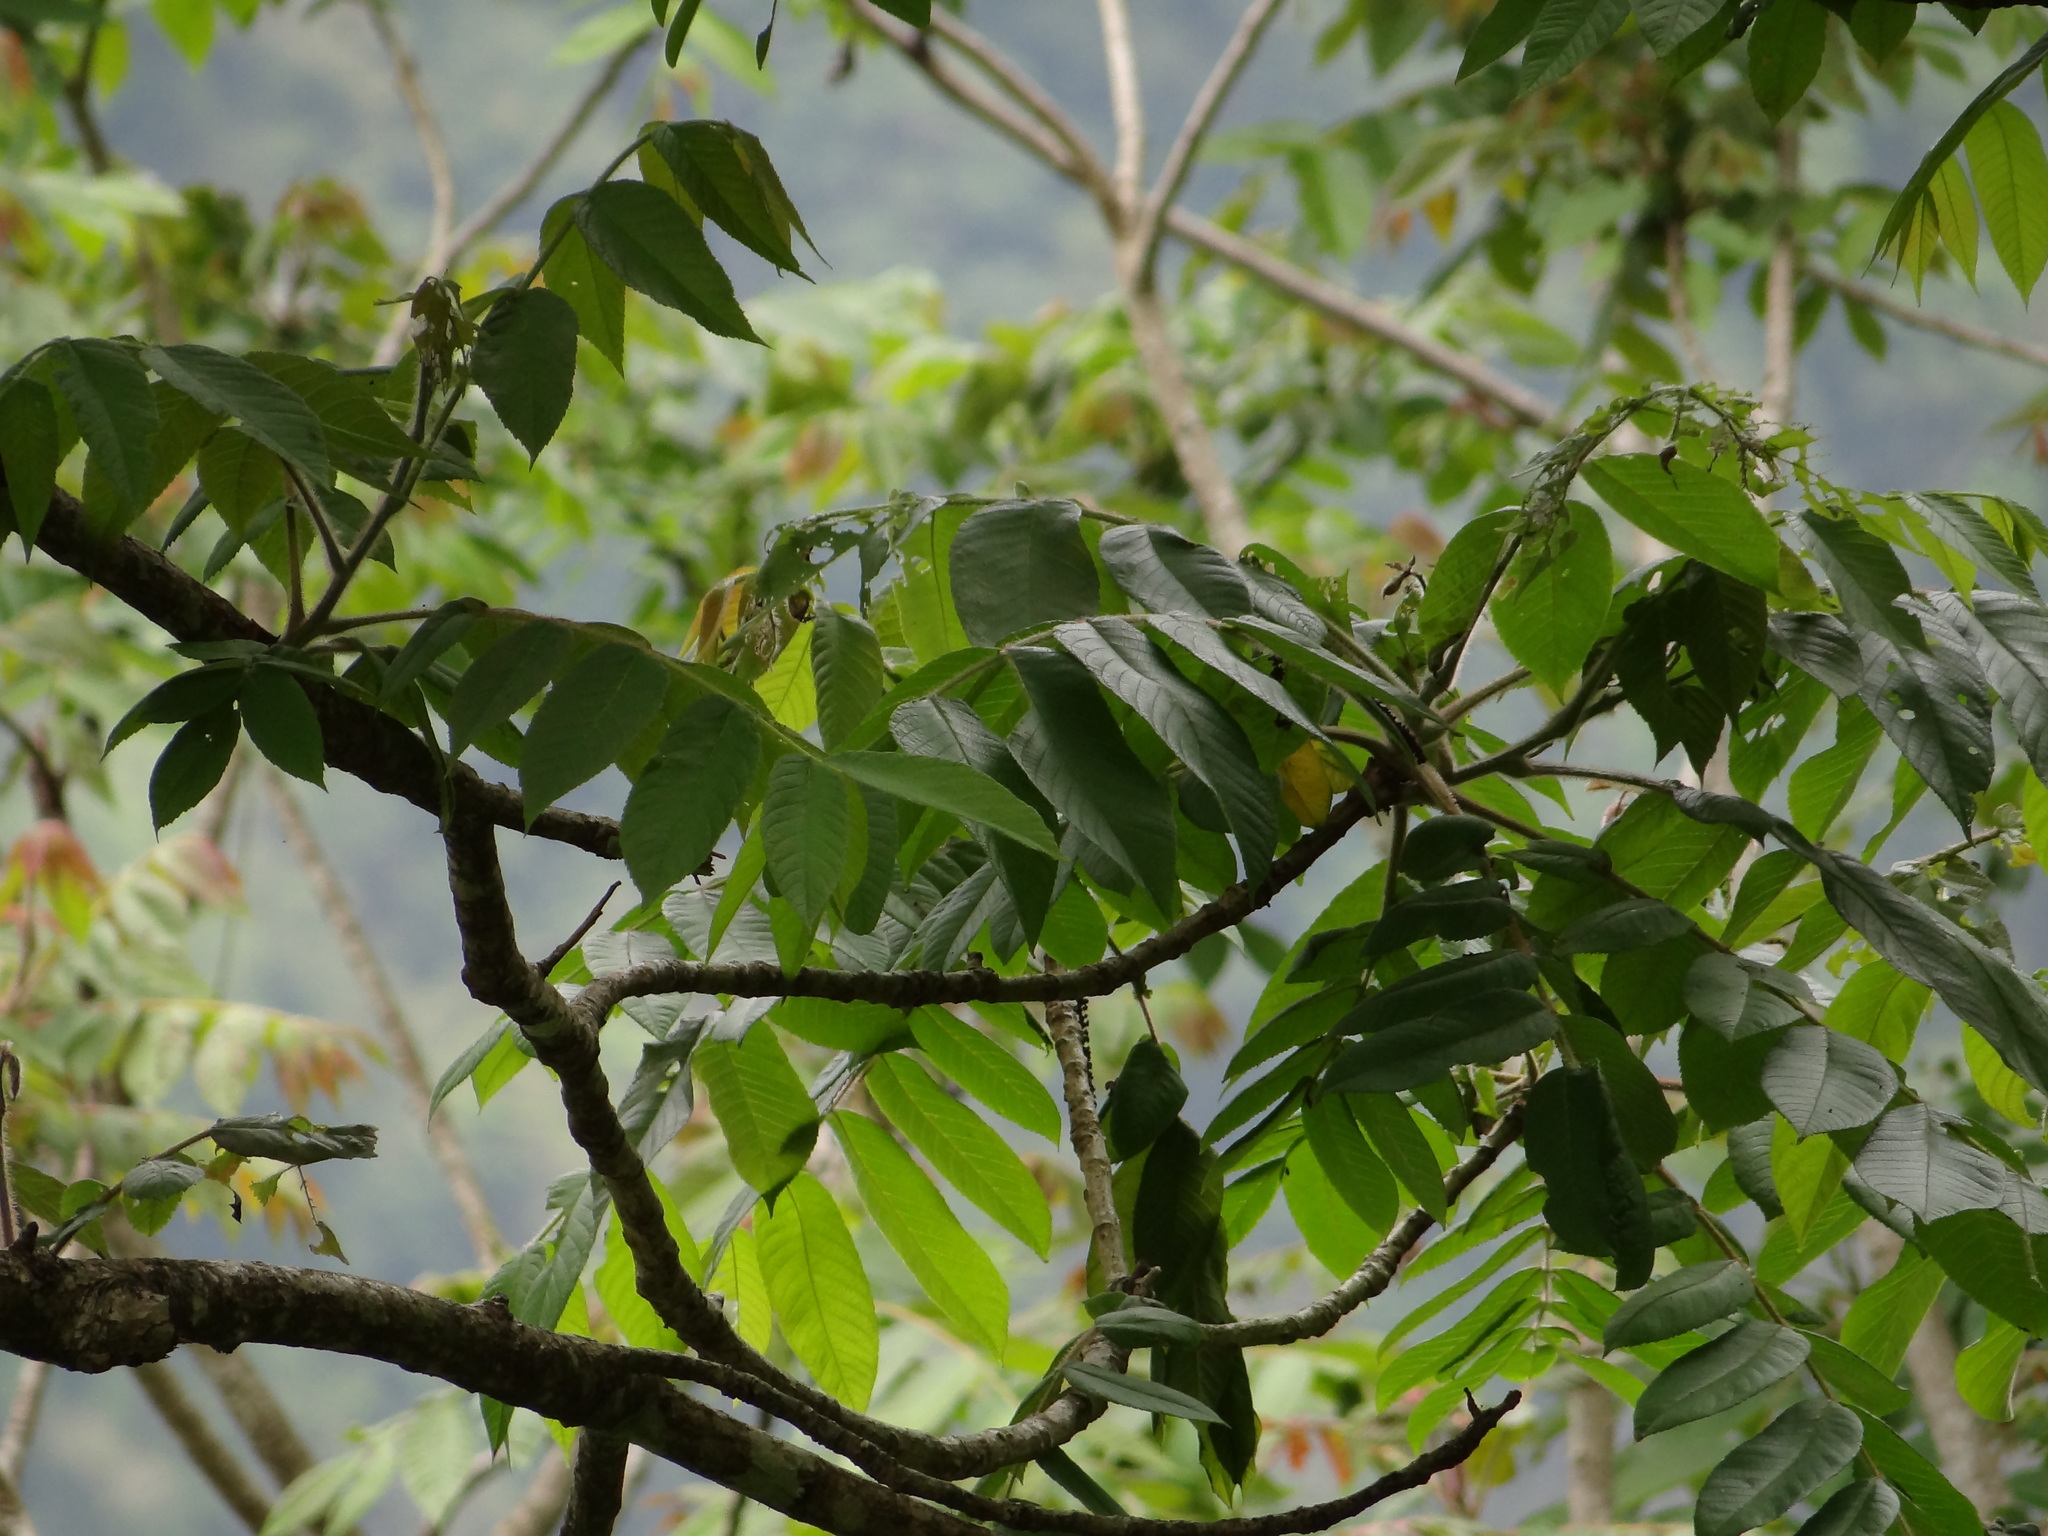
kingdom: Plantae
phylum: Tracheophyta
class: Magnoliopsida
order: Fagales
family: Juglandaceae
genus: Juglans
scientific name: Juglans mandshurica
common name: Manchurian walnut
